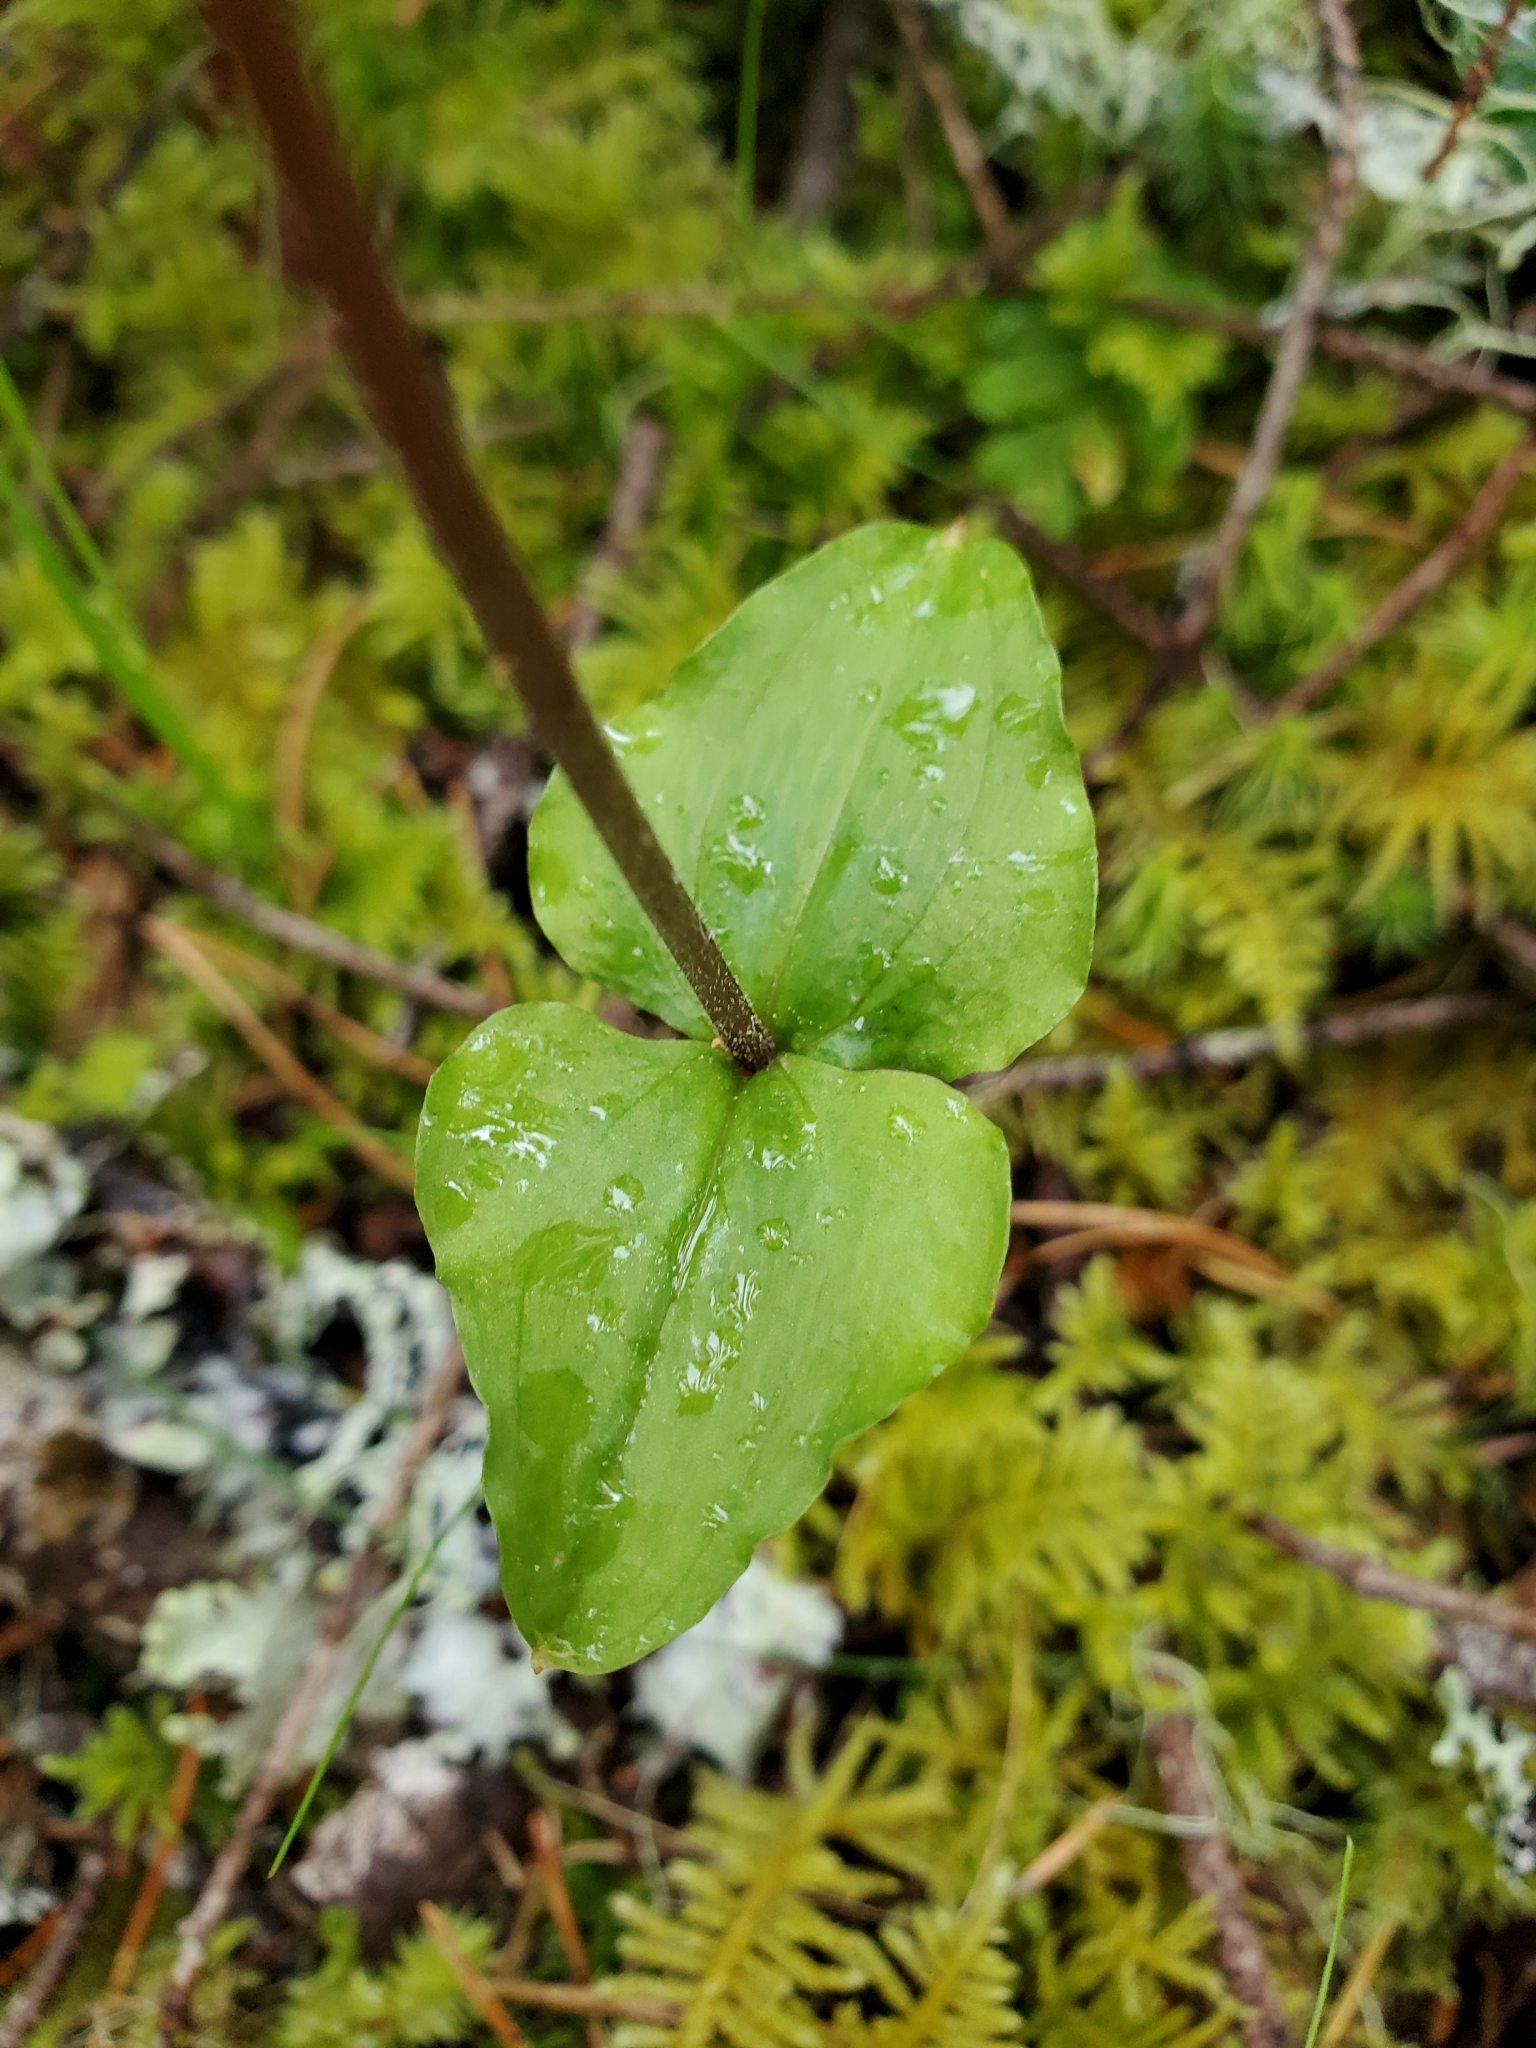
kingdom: Plantae
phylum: Tracheophyta
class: Liliopsida
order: Asparagales
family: Orchidaceae
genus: Neottia
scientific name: Neottia cordata
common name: Lesser twayblade
